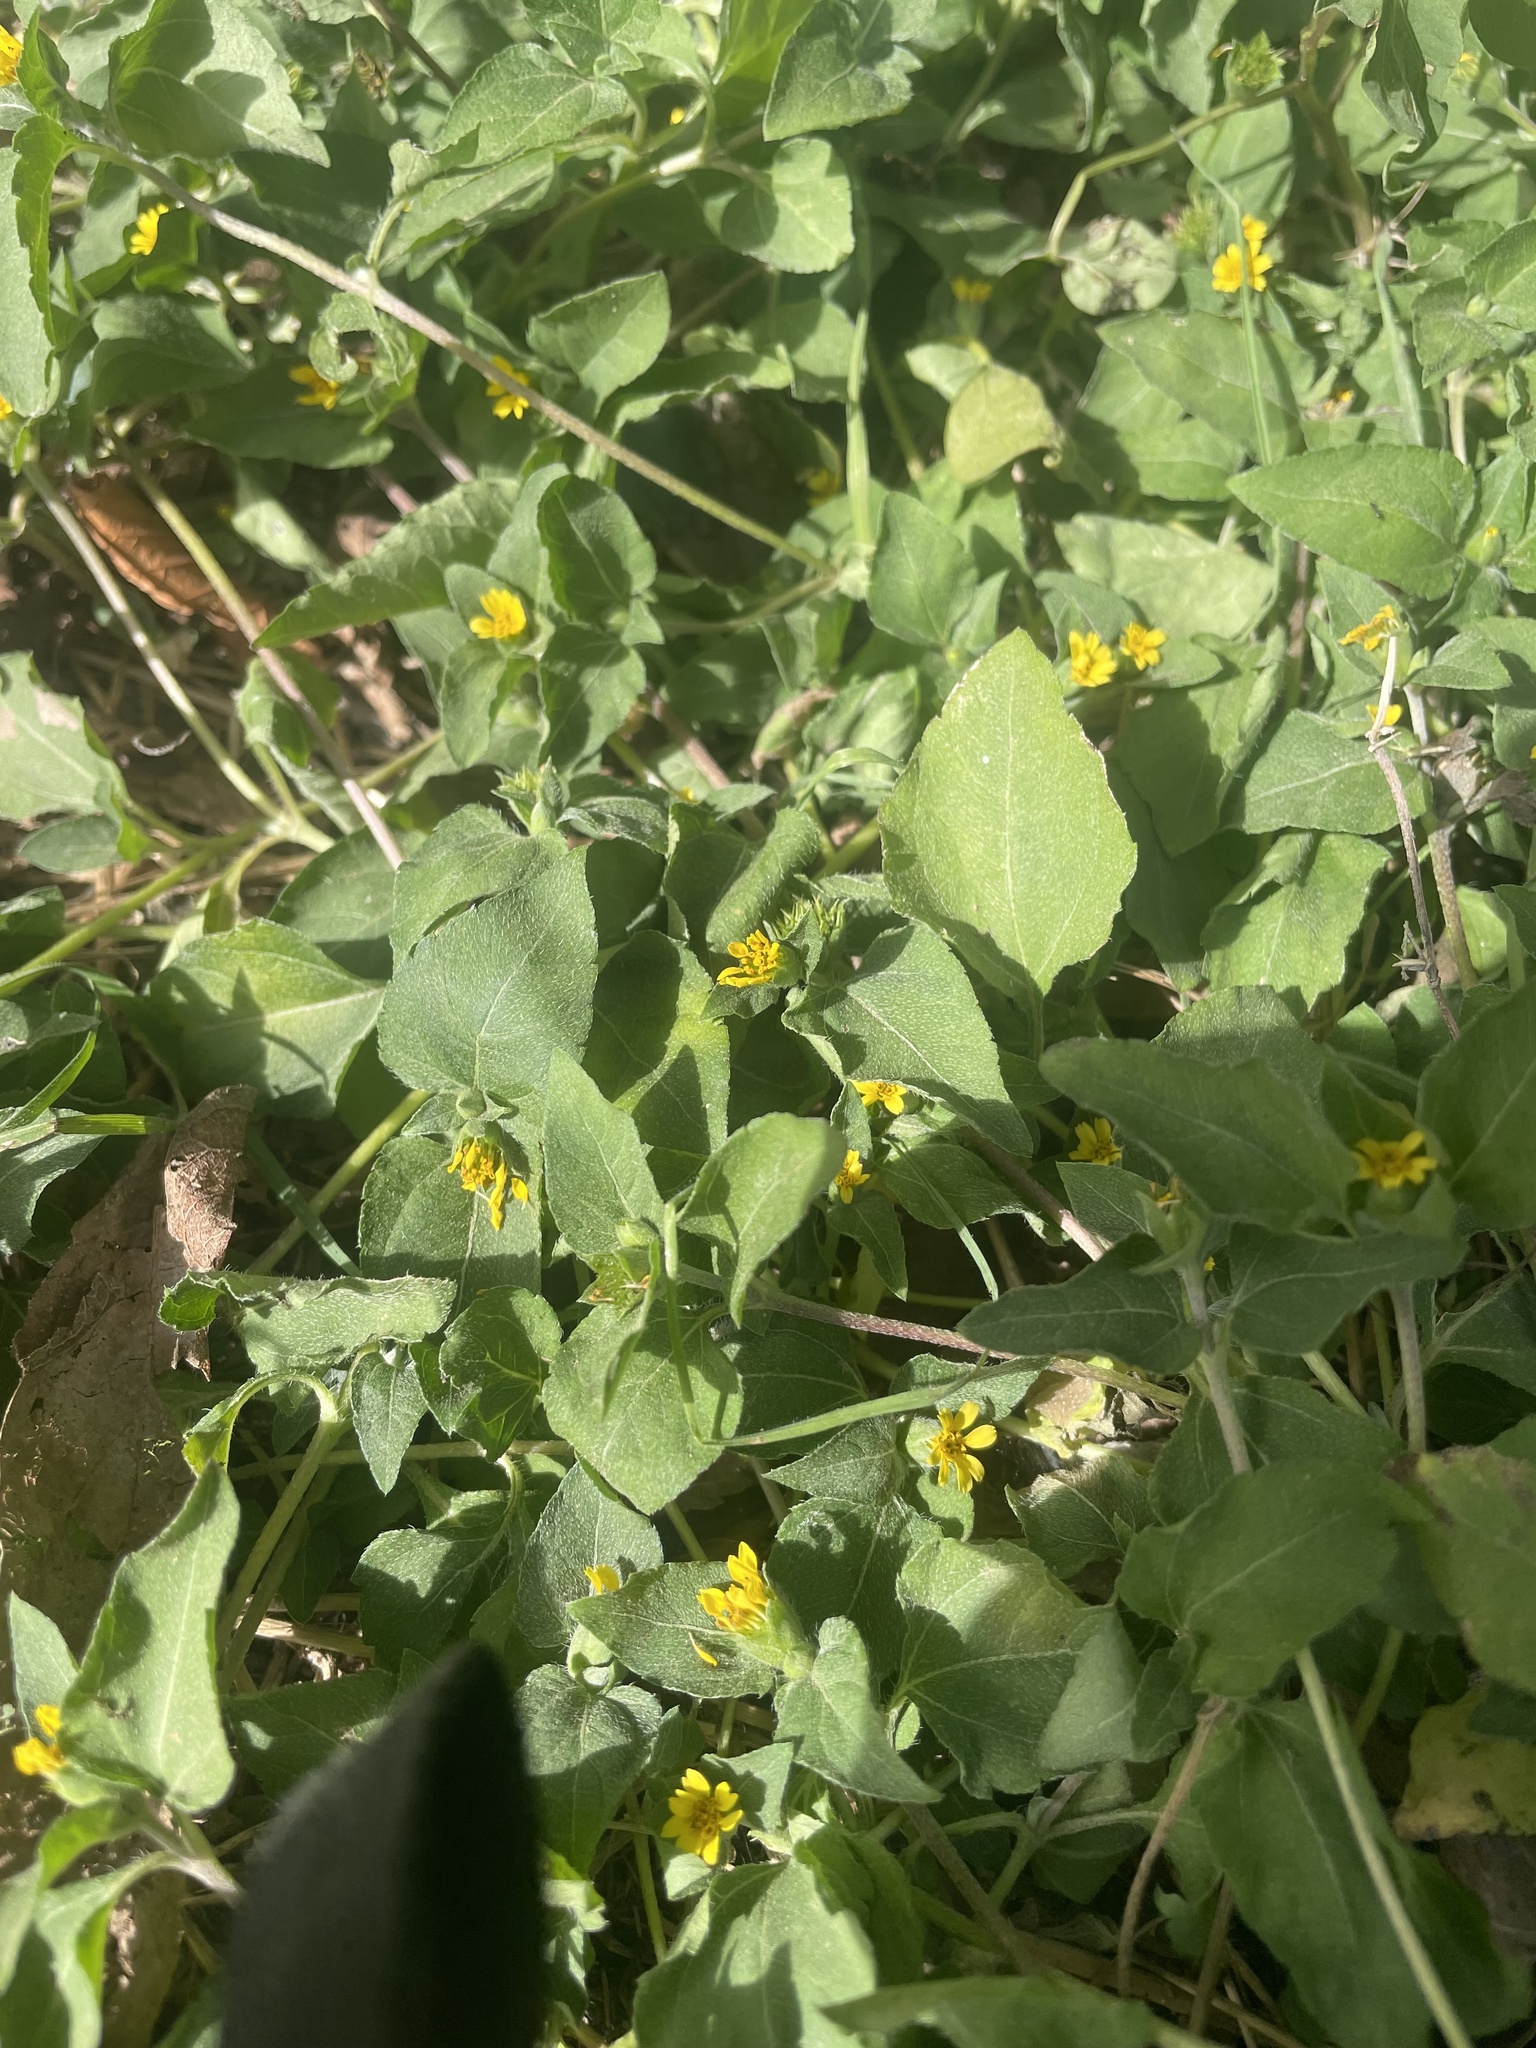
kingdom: Plantae
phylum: Tracheophyta
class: Magnoliopsida
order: Asterales
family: Asteraceae
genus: Calyptocarpus
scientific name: Calyptocarpus vialis
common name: Straggler daisy
